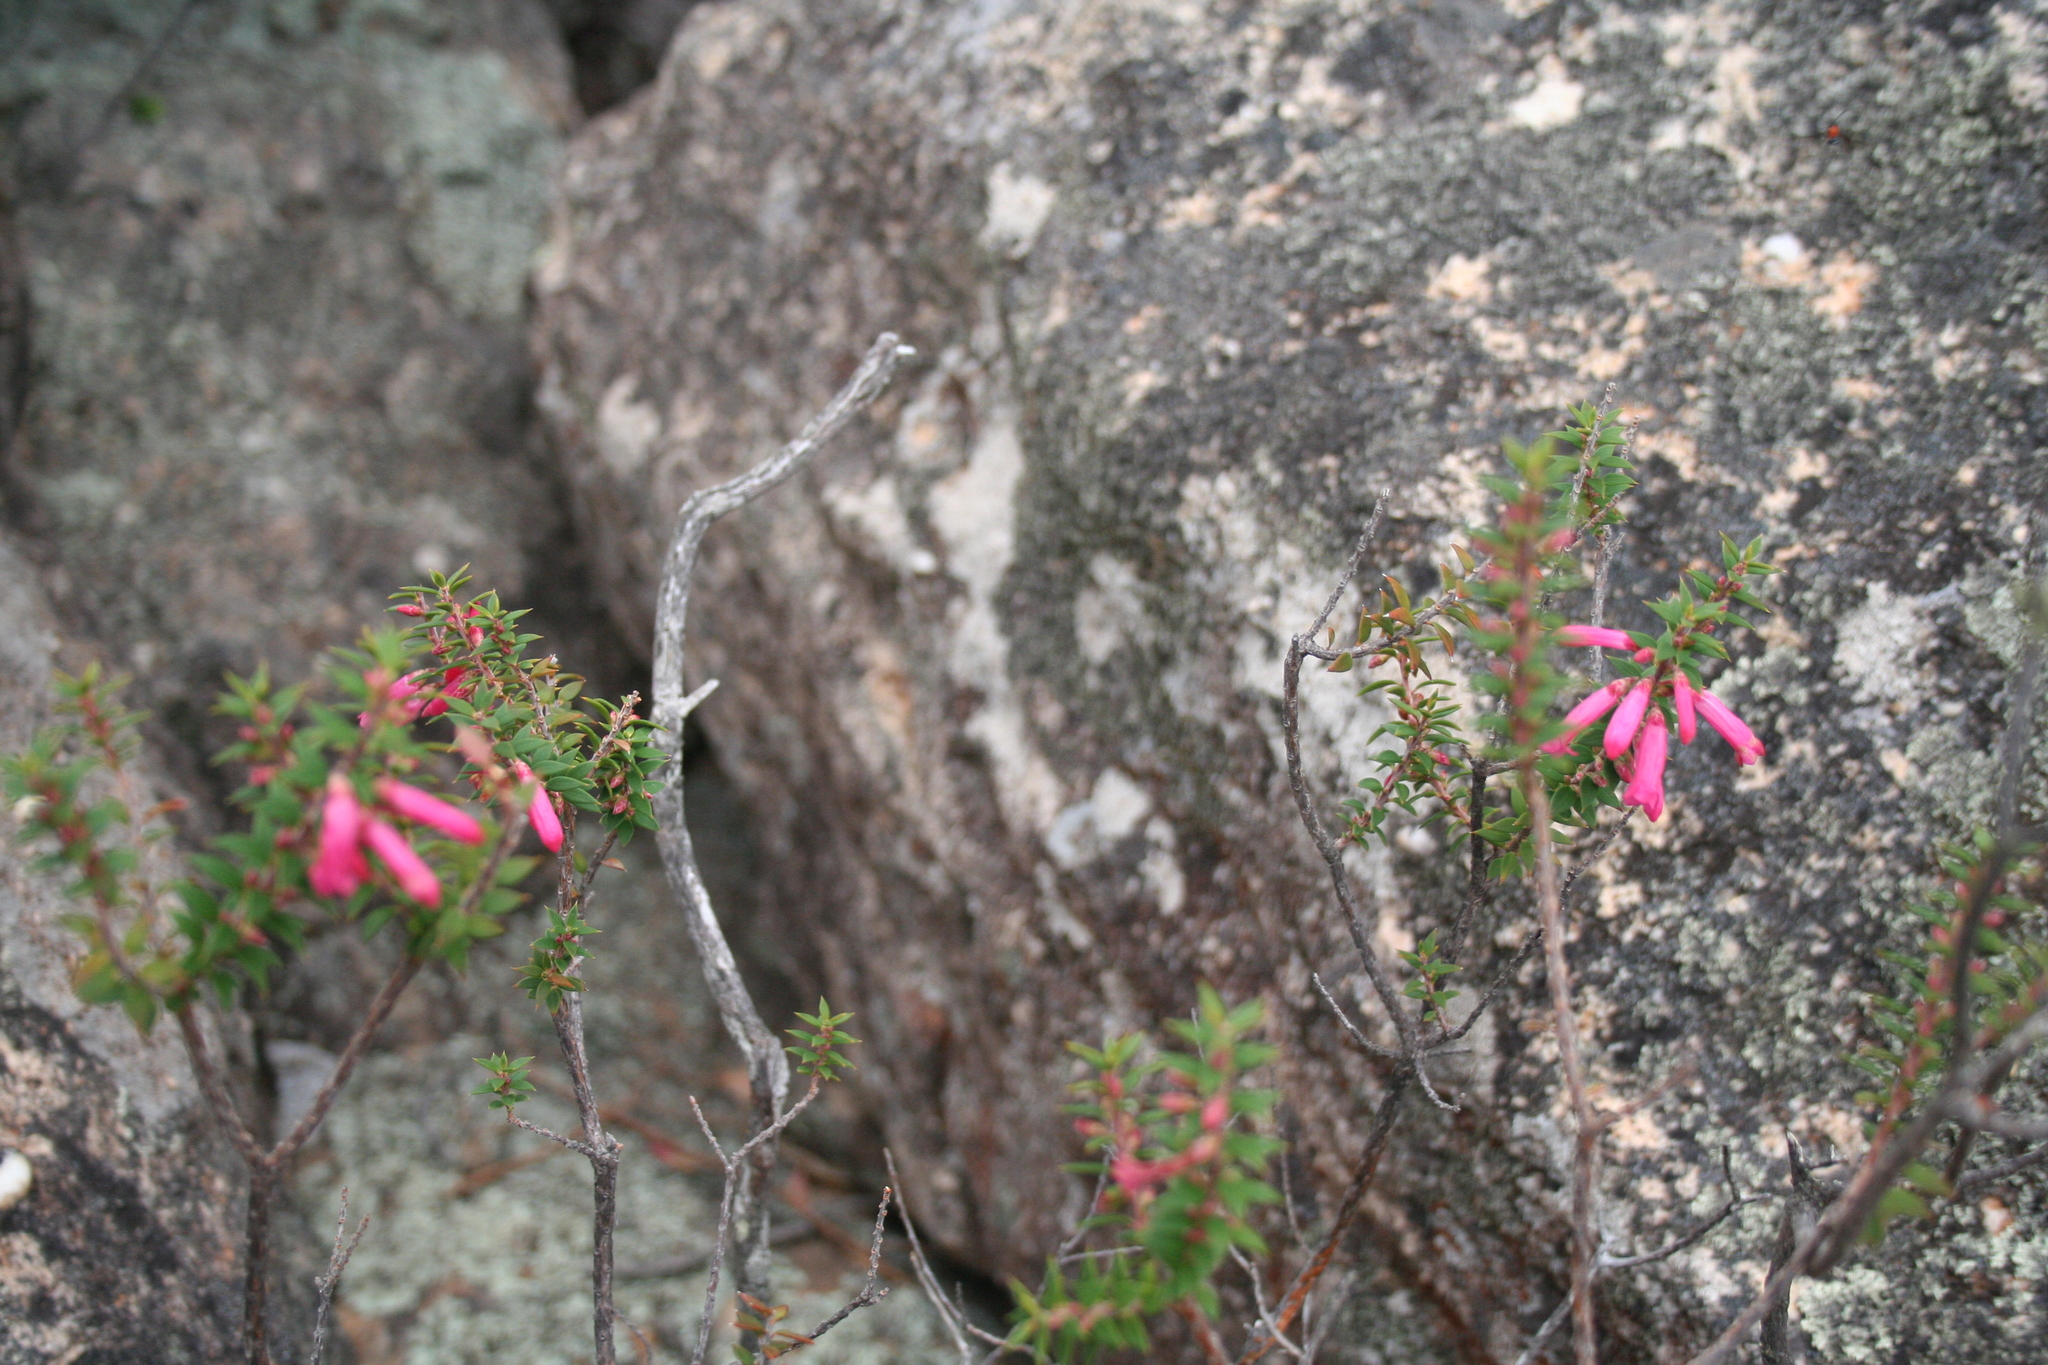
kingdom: Plantae
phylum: Tracheophyta
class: Magnoliopsida
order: Ericales
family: Ericaceae
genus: Epacris
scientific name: Epacris impressa
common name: Common-heath
